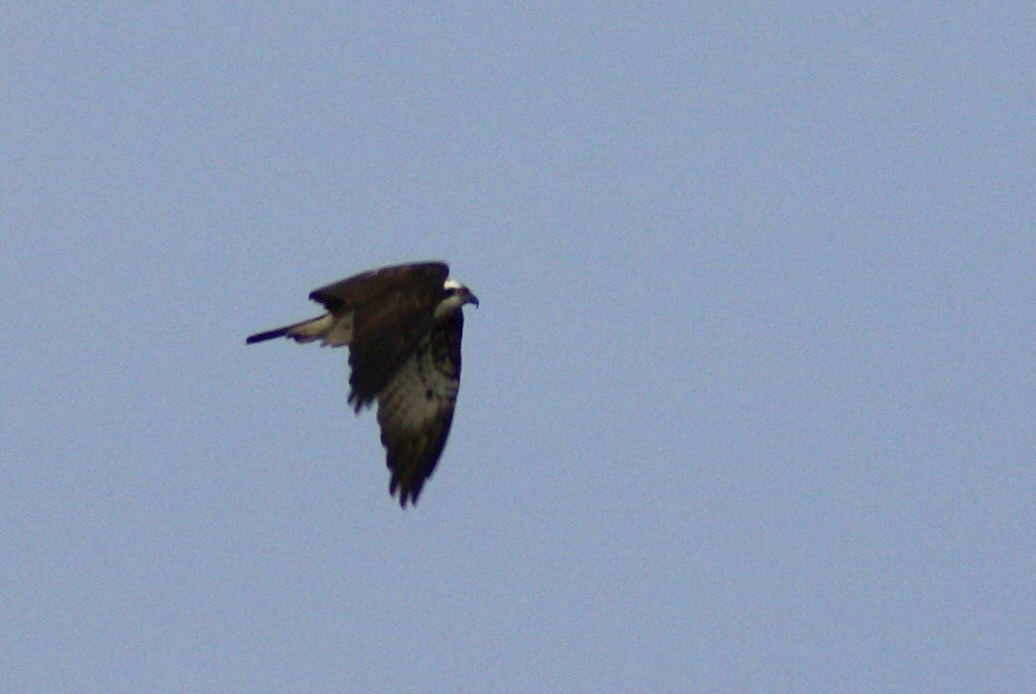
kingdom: Animalia
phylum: Chordata
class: Aves
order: Accipitriformes
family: Pandionidae
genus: Pandion
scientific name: Pandion haliaetus
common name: Osprey
